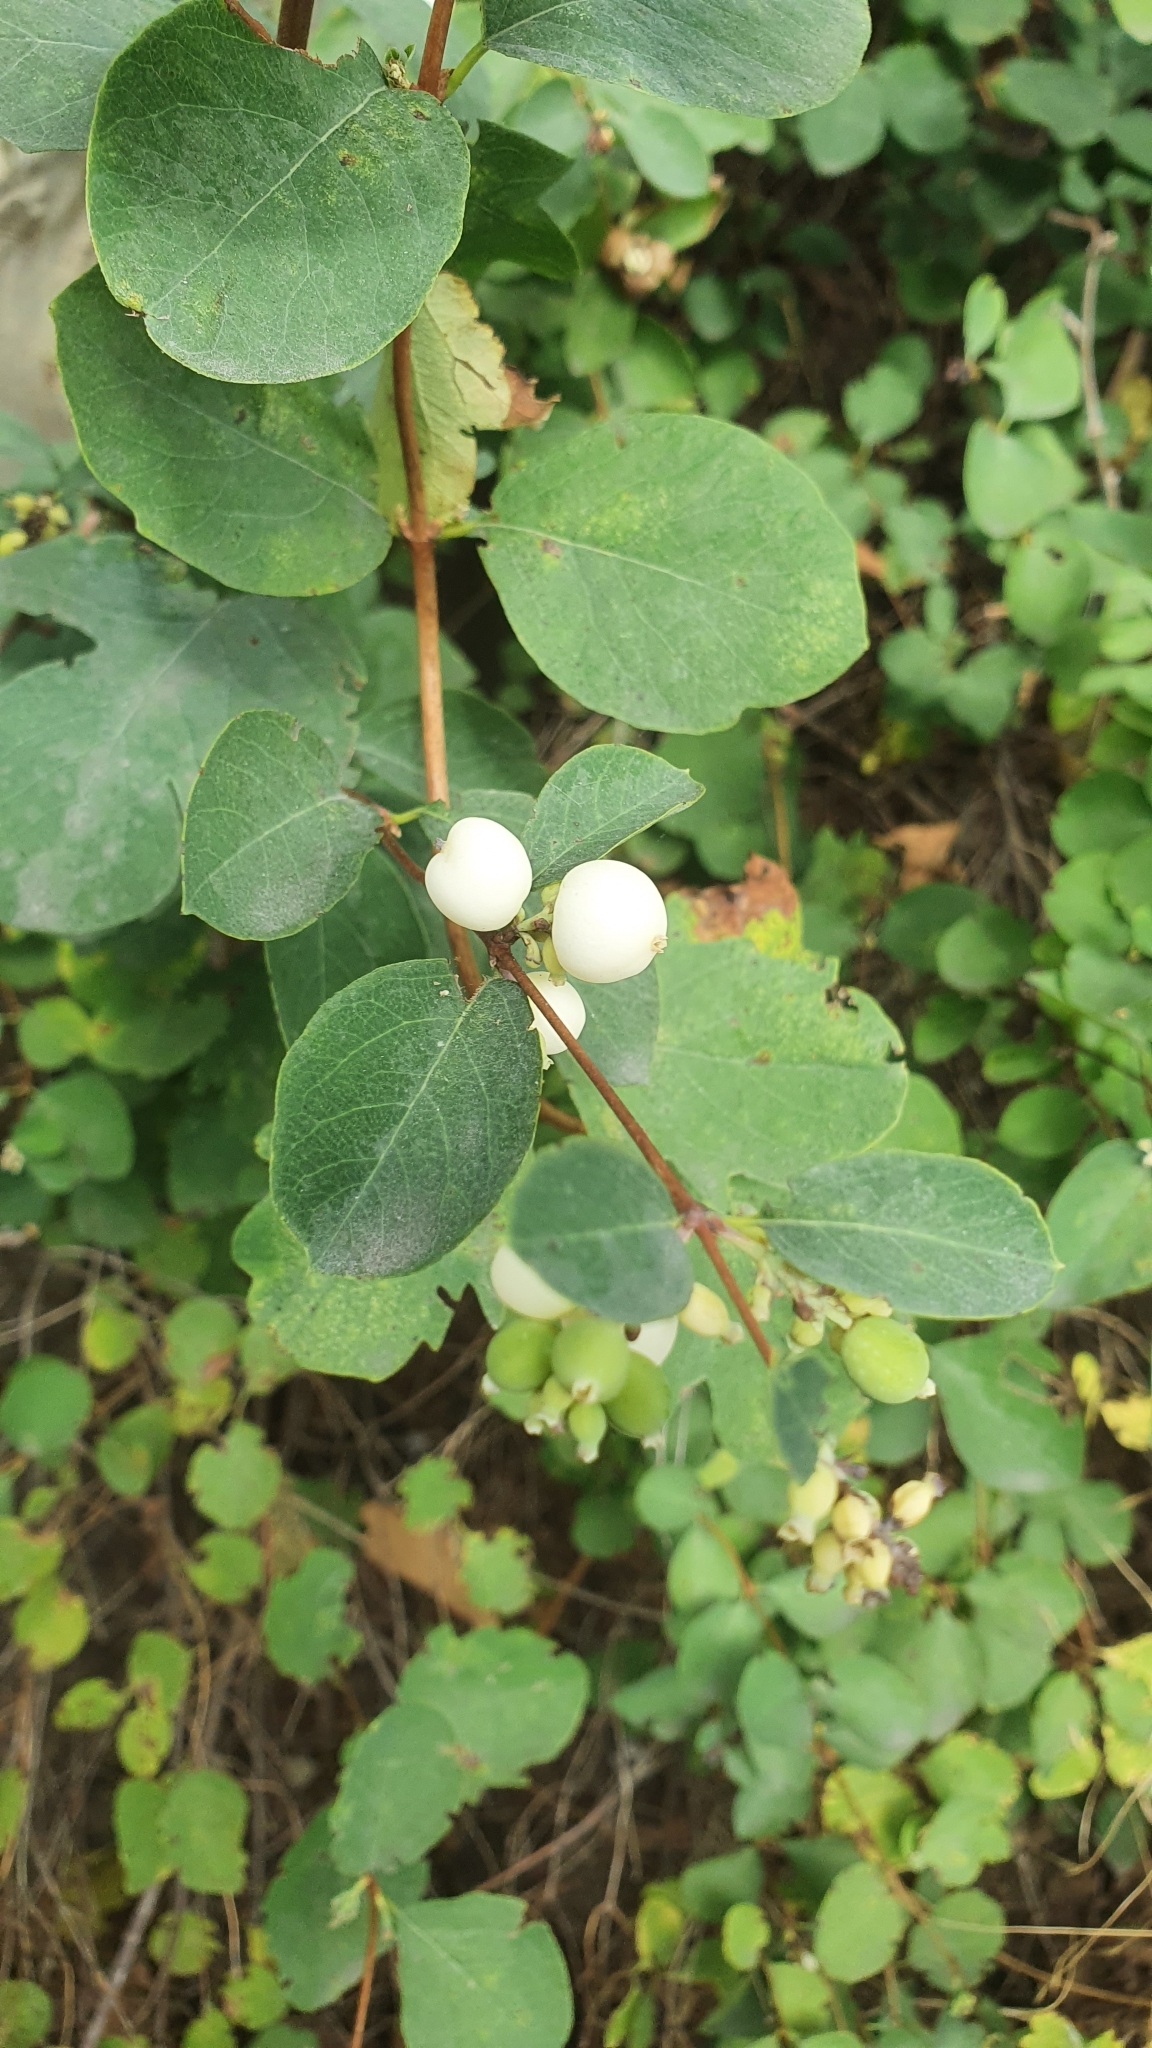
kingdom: Plantae
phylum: Tracheophyta
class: Magnoliopsida
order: Dipsacales
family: Caprifoliaceae
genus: Symphoricarpos
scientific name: Symphoricarpos albus
